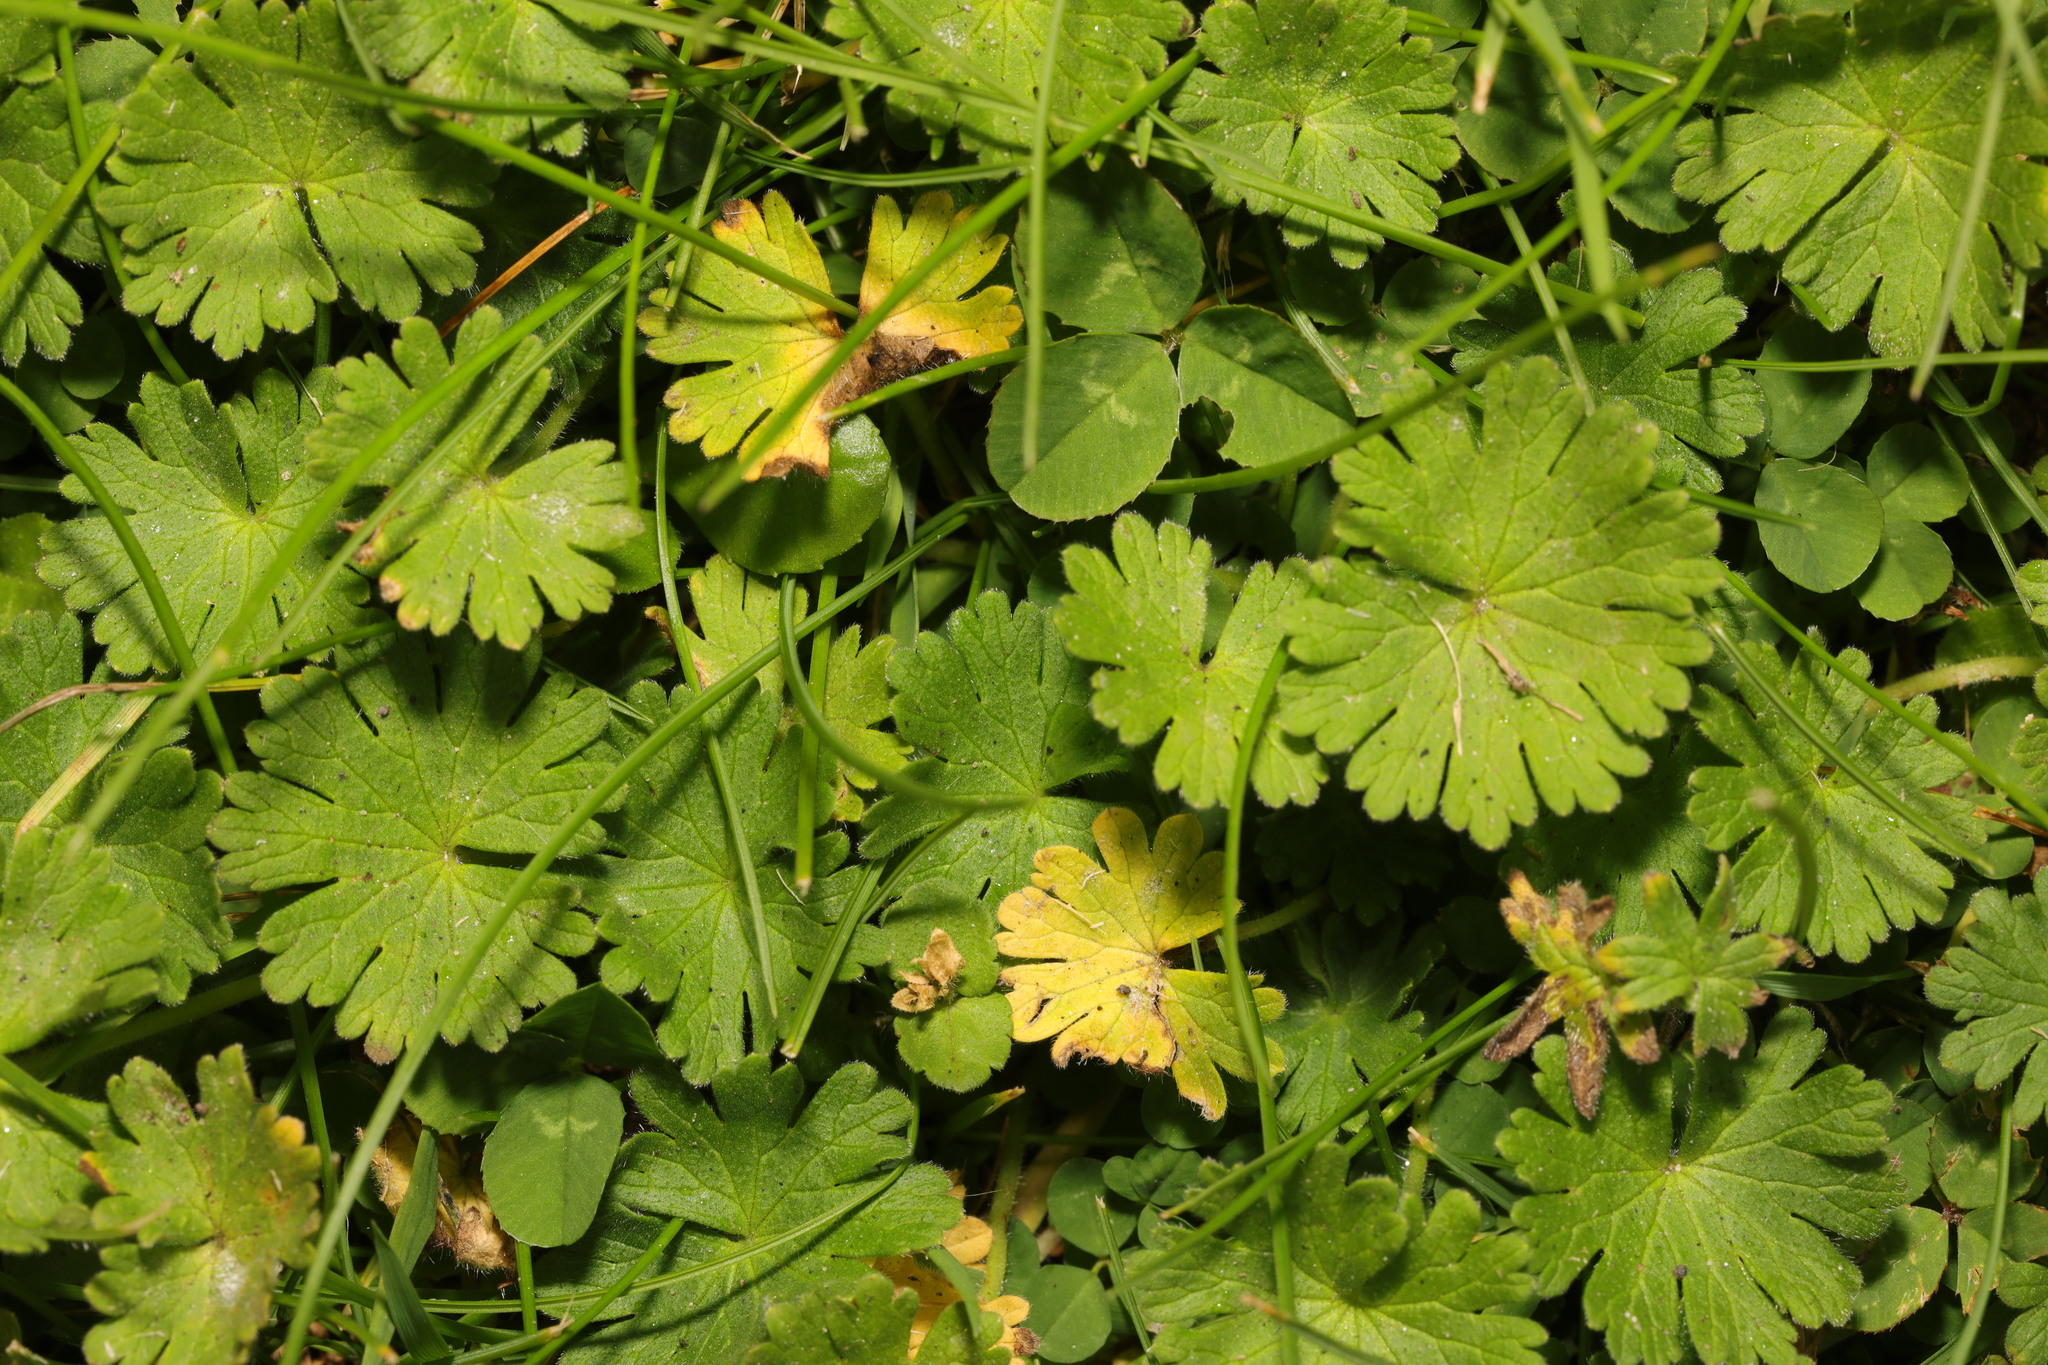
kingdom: Plantae
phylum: Tracheophyta
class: Magnoliopsida
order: Geraniales
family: Geraniaceae
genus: Geranium
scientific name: Geranium molle
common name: Dove's-foot crane's-bill
